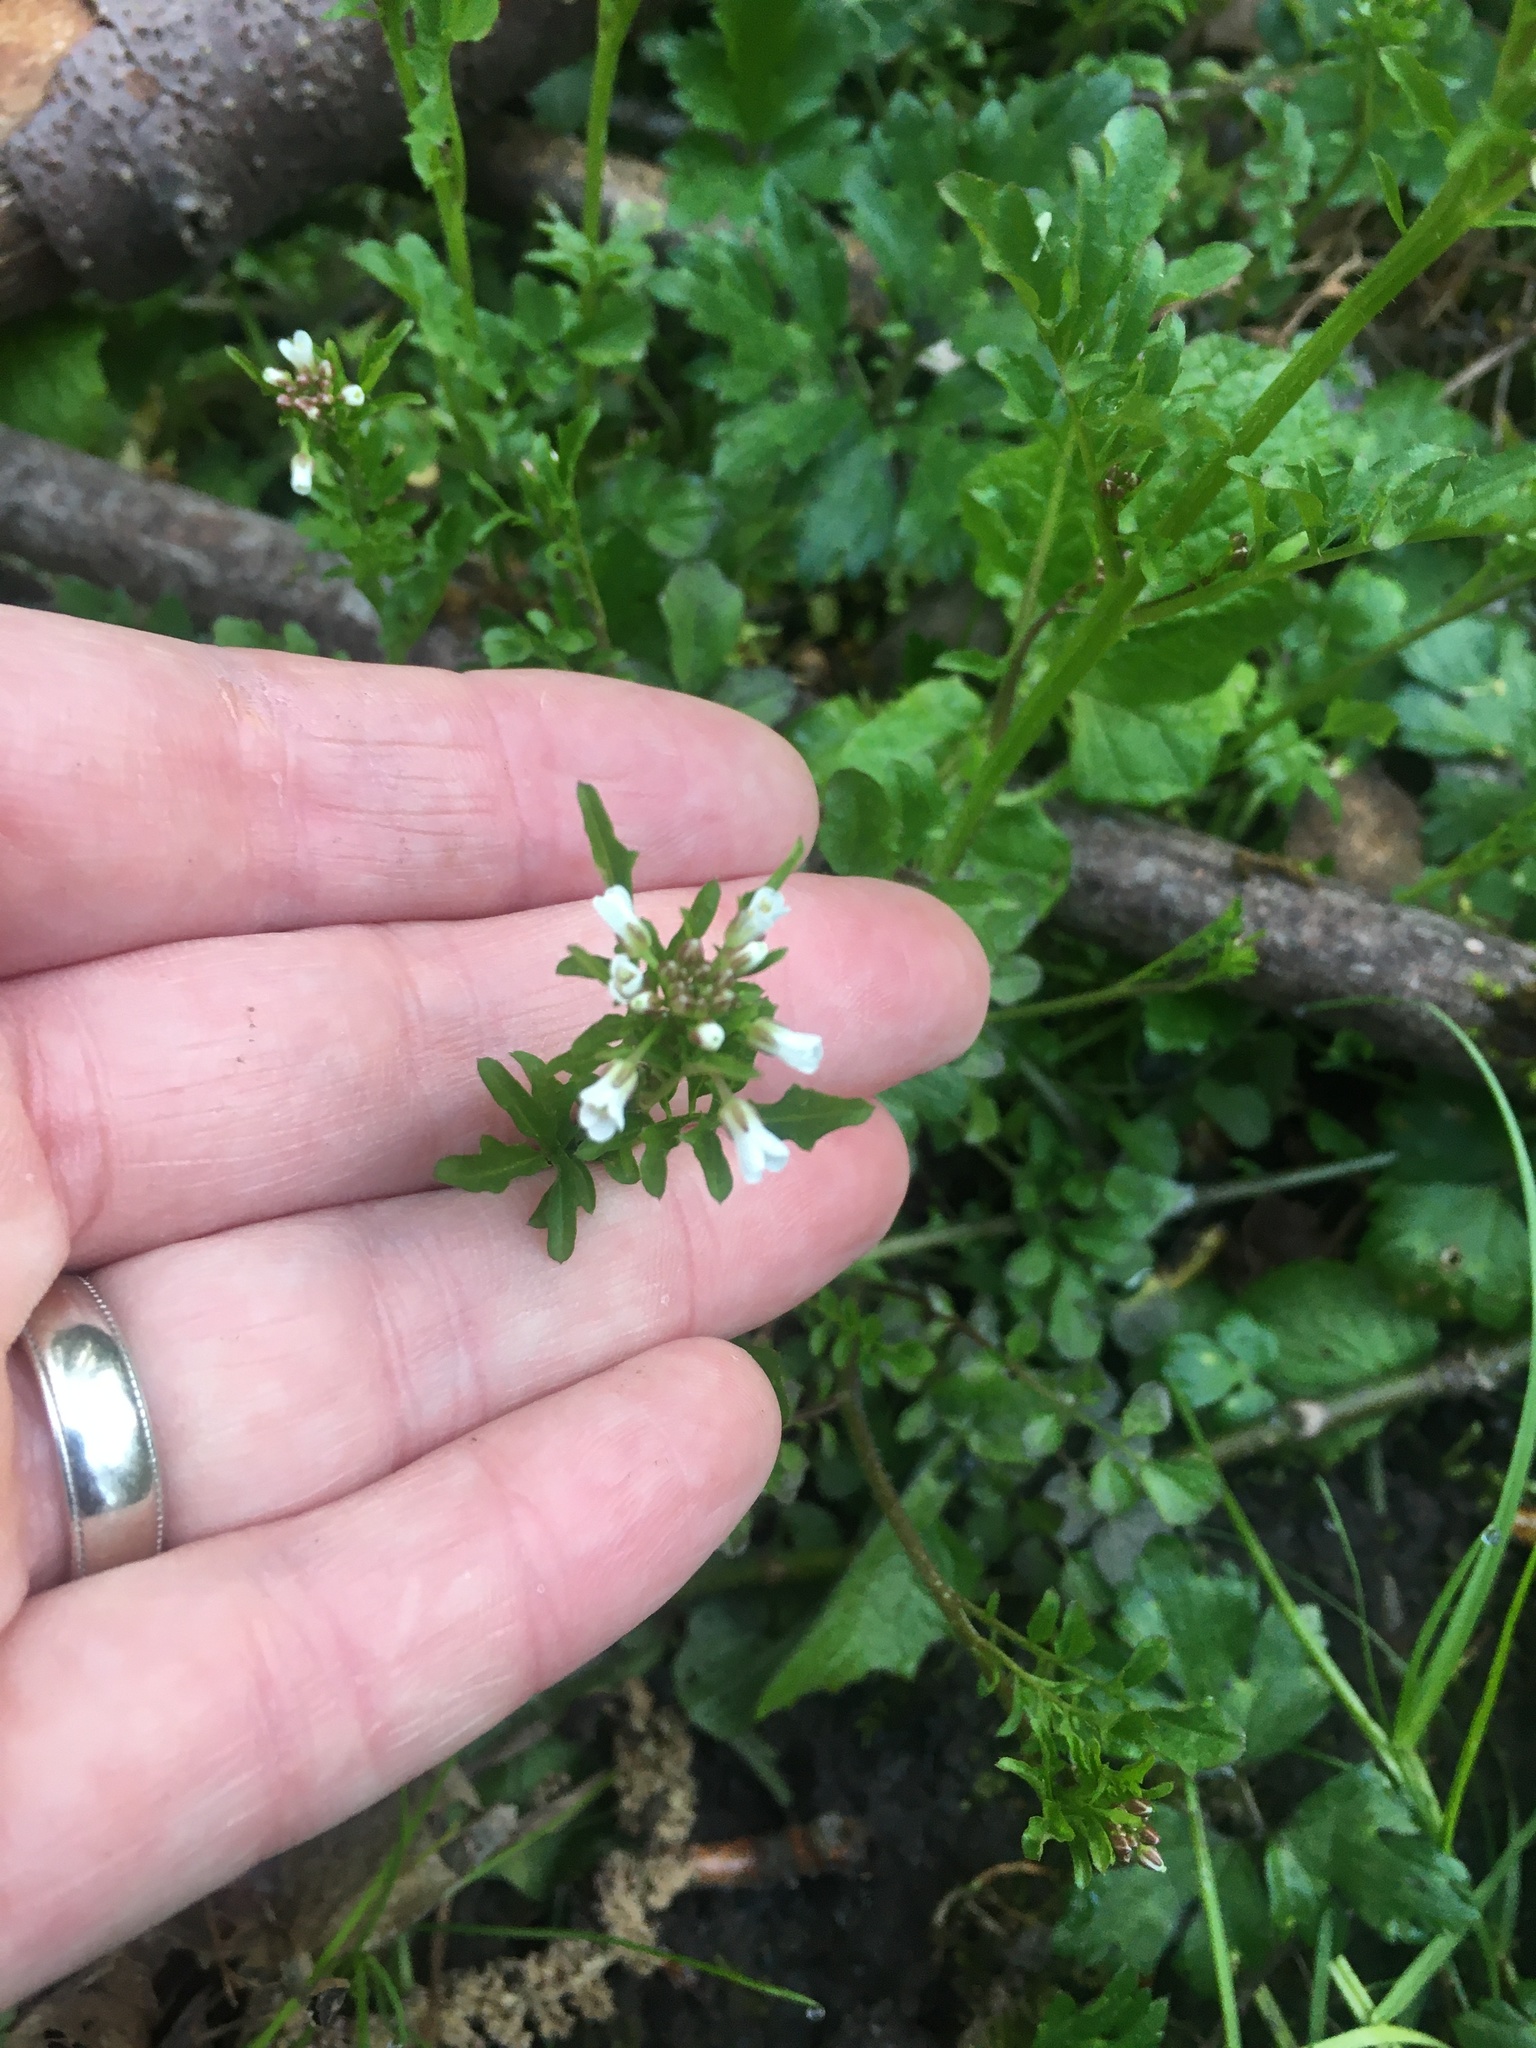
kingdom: Plantae
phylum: Tracheophyta
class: Magnoliopsida
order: Brassicales
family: Brassicaceae
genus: Cardamine
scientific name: Cardamine flexuosa
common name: Woodland bittercress
